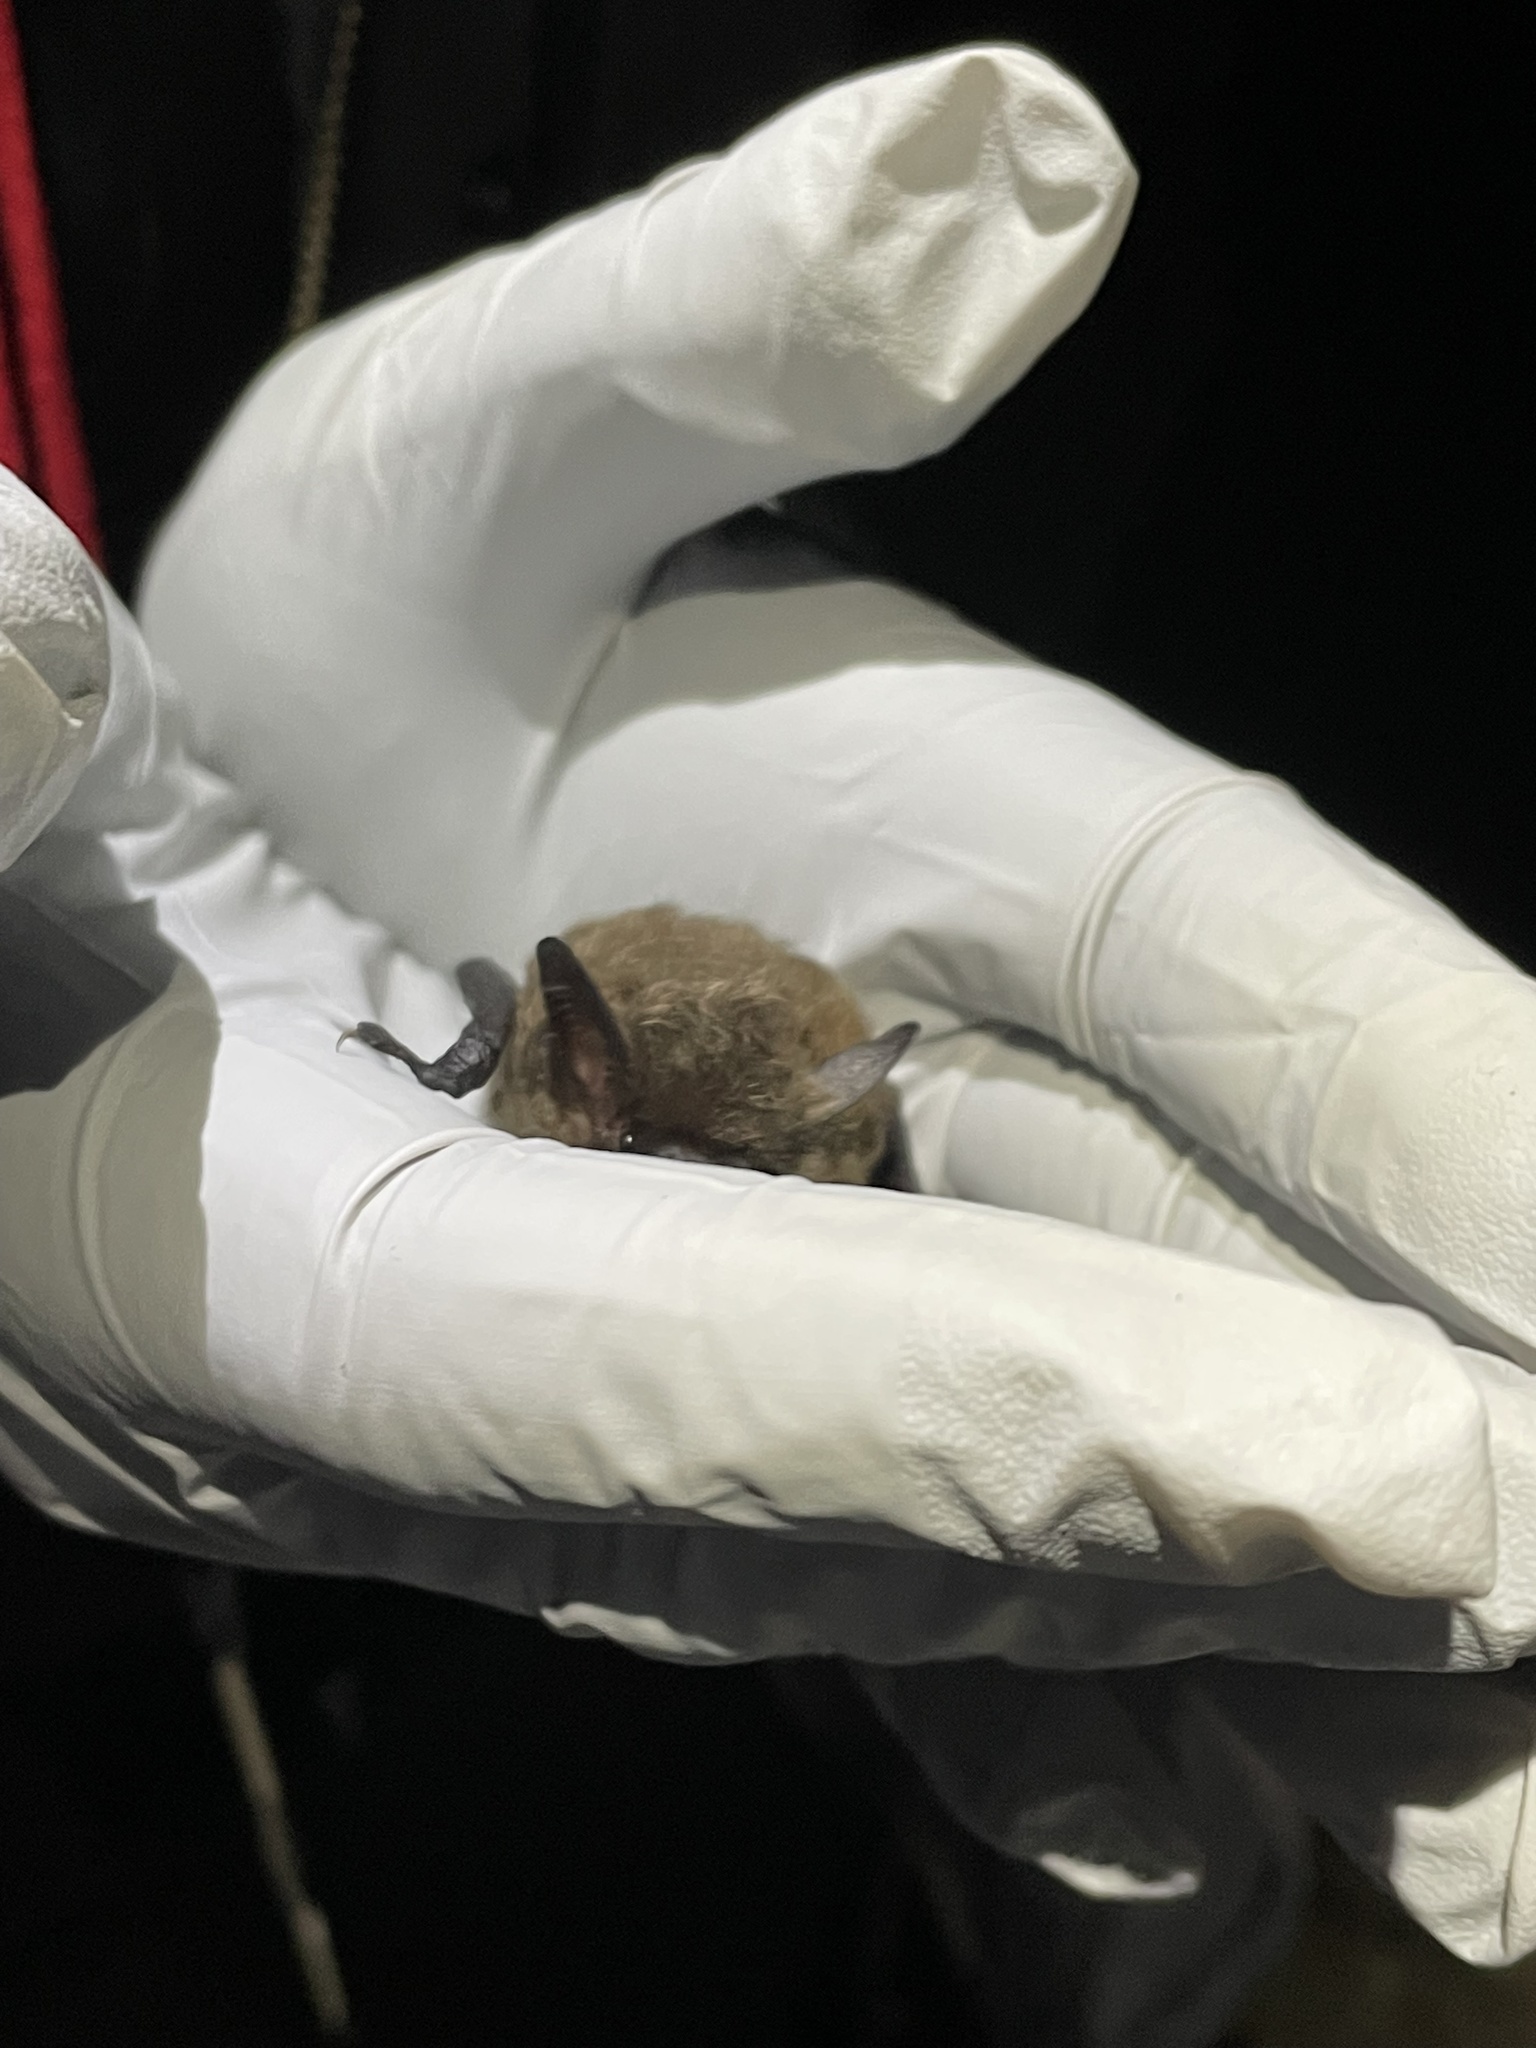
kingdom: Animalia
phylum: Chordata
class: Mammalia
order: Chiroptera
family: Vespertilionidae
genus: Myotis
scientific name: Myotis yumanensis
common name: Yuma myotis
